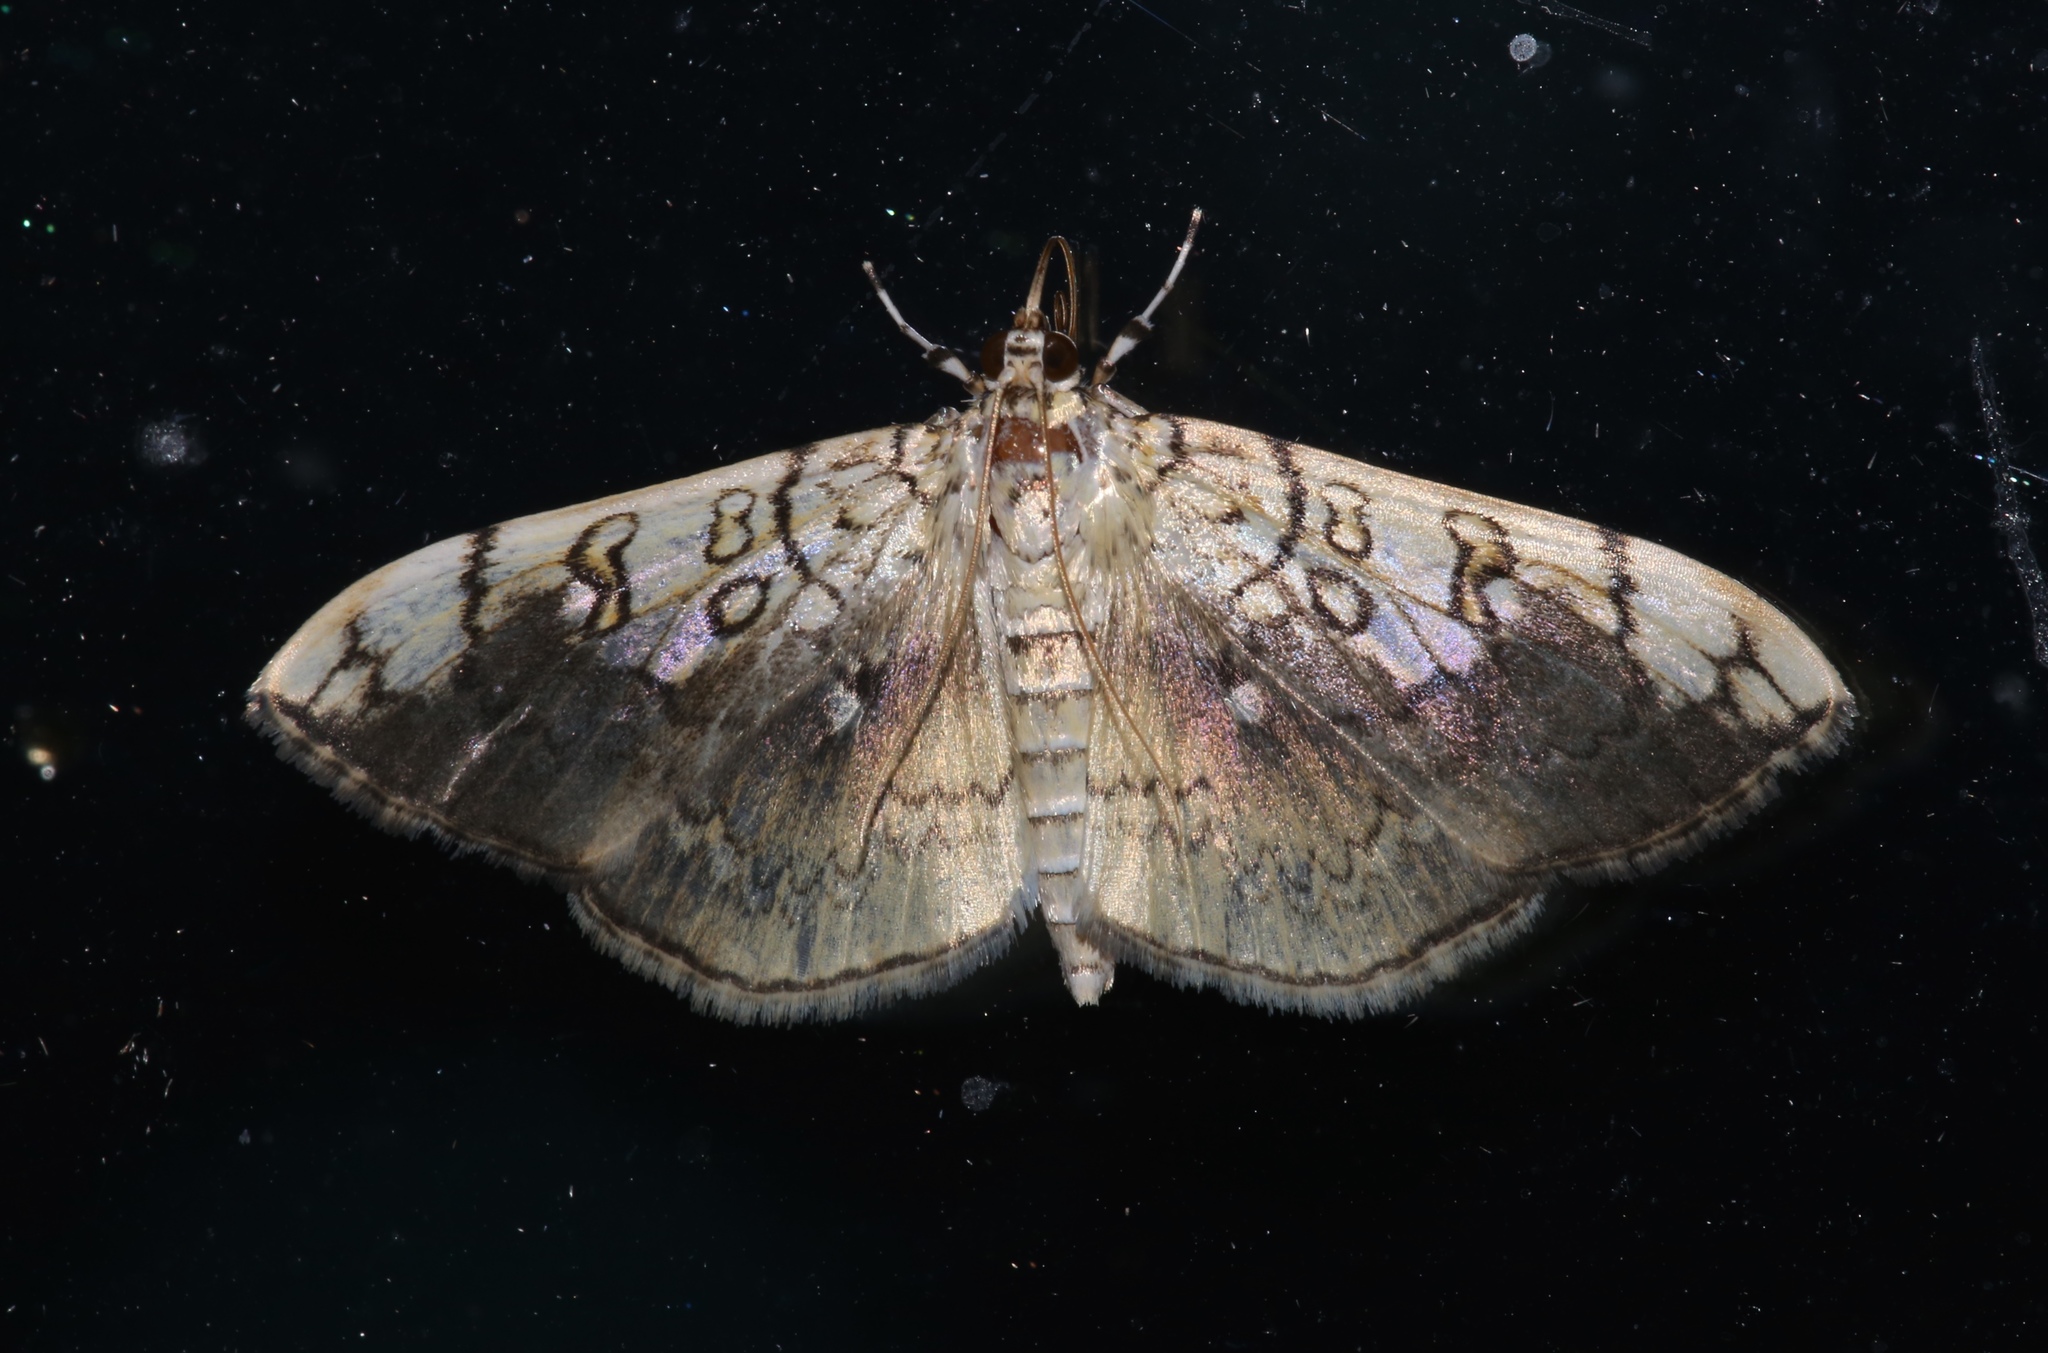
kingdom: Animalia
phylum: Arthropoda
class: Insecta
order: Lepidoptera
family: Crambidae
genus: Pantographa
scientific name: Pantographa limata
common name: Basswood leafroller moth
